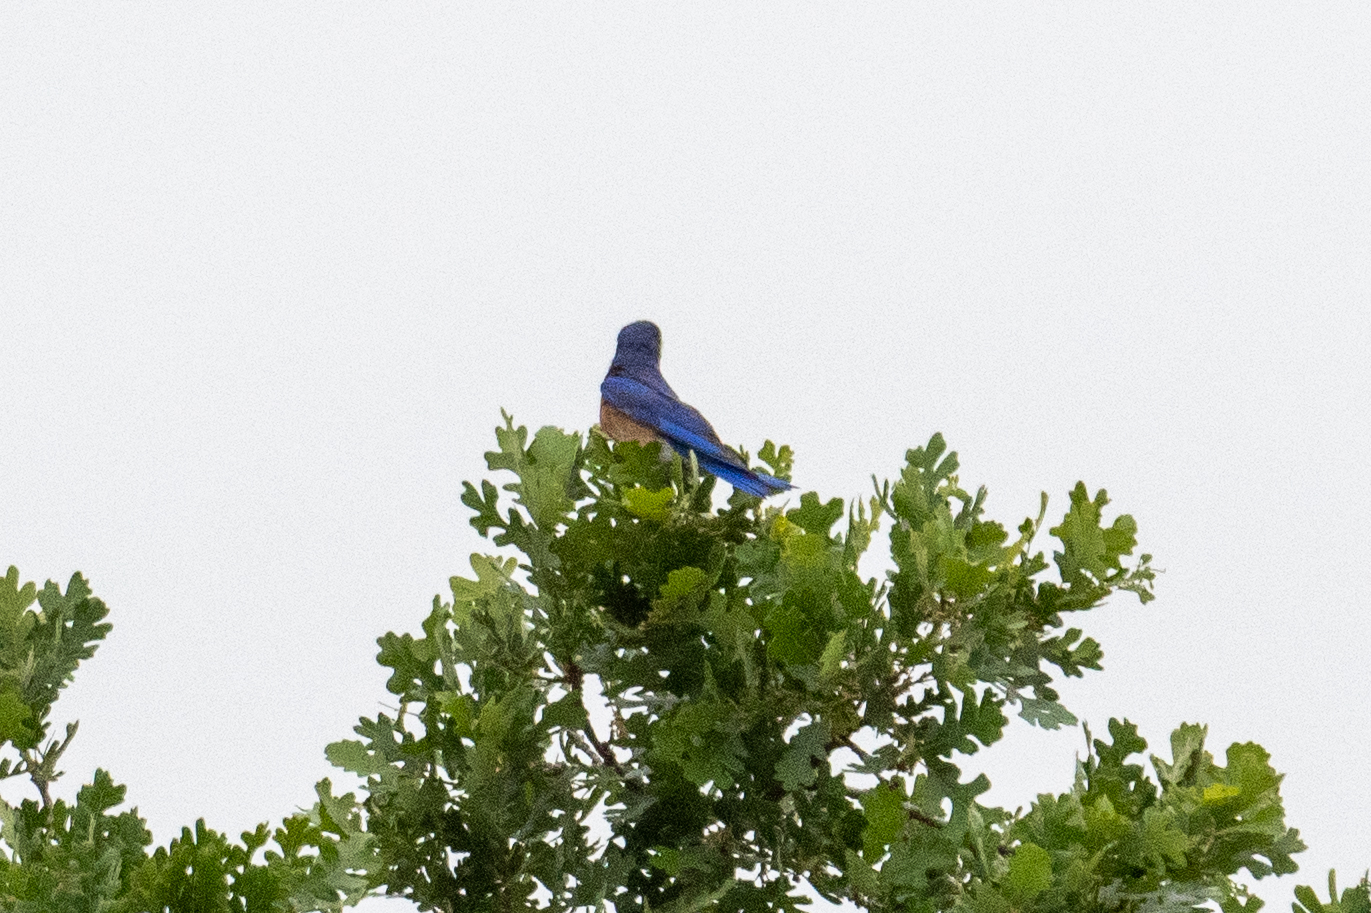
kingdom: Animalia
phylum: Chordata
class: Aves
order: Passeriformes
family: Turdidae
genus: Sialia
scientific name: Sialia mexicana
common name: Western bluebird
